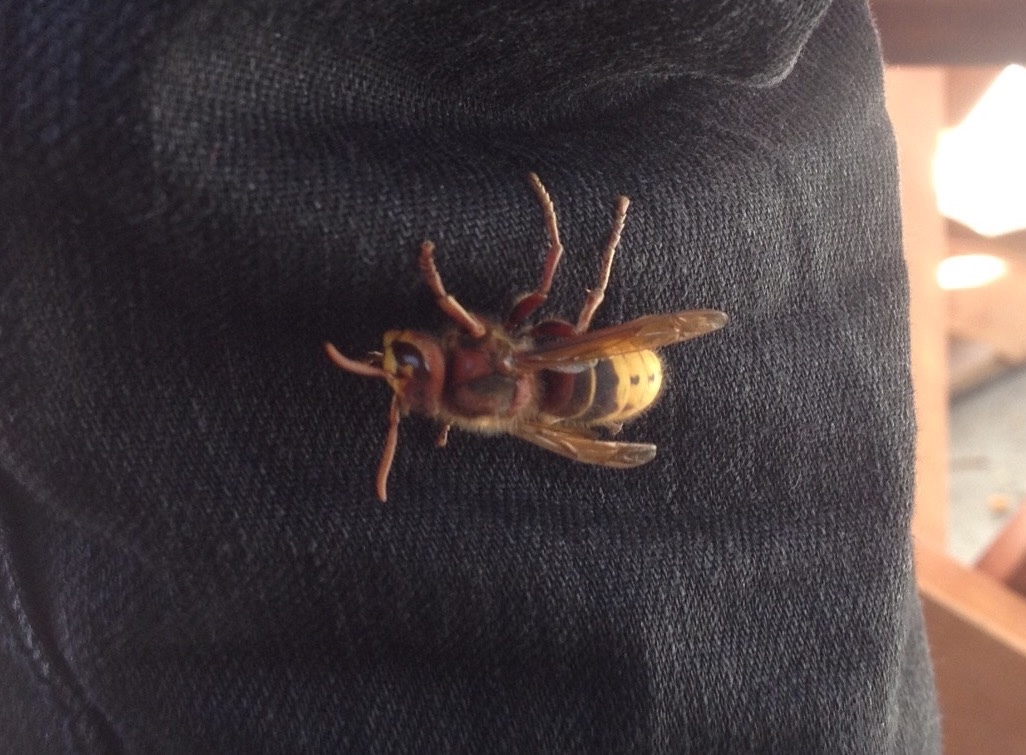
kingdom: Animalia
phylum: Arthropoda
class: Insecta
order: Hymenoptera
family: Vespidae
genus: Vespa
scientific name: Vespa crabro
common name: Hornet
